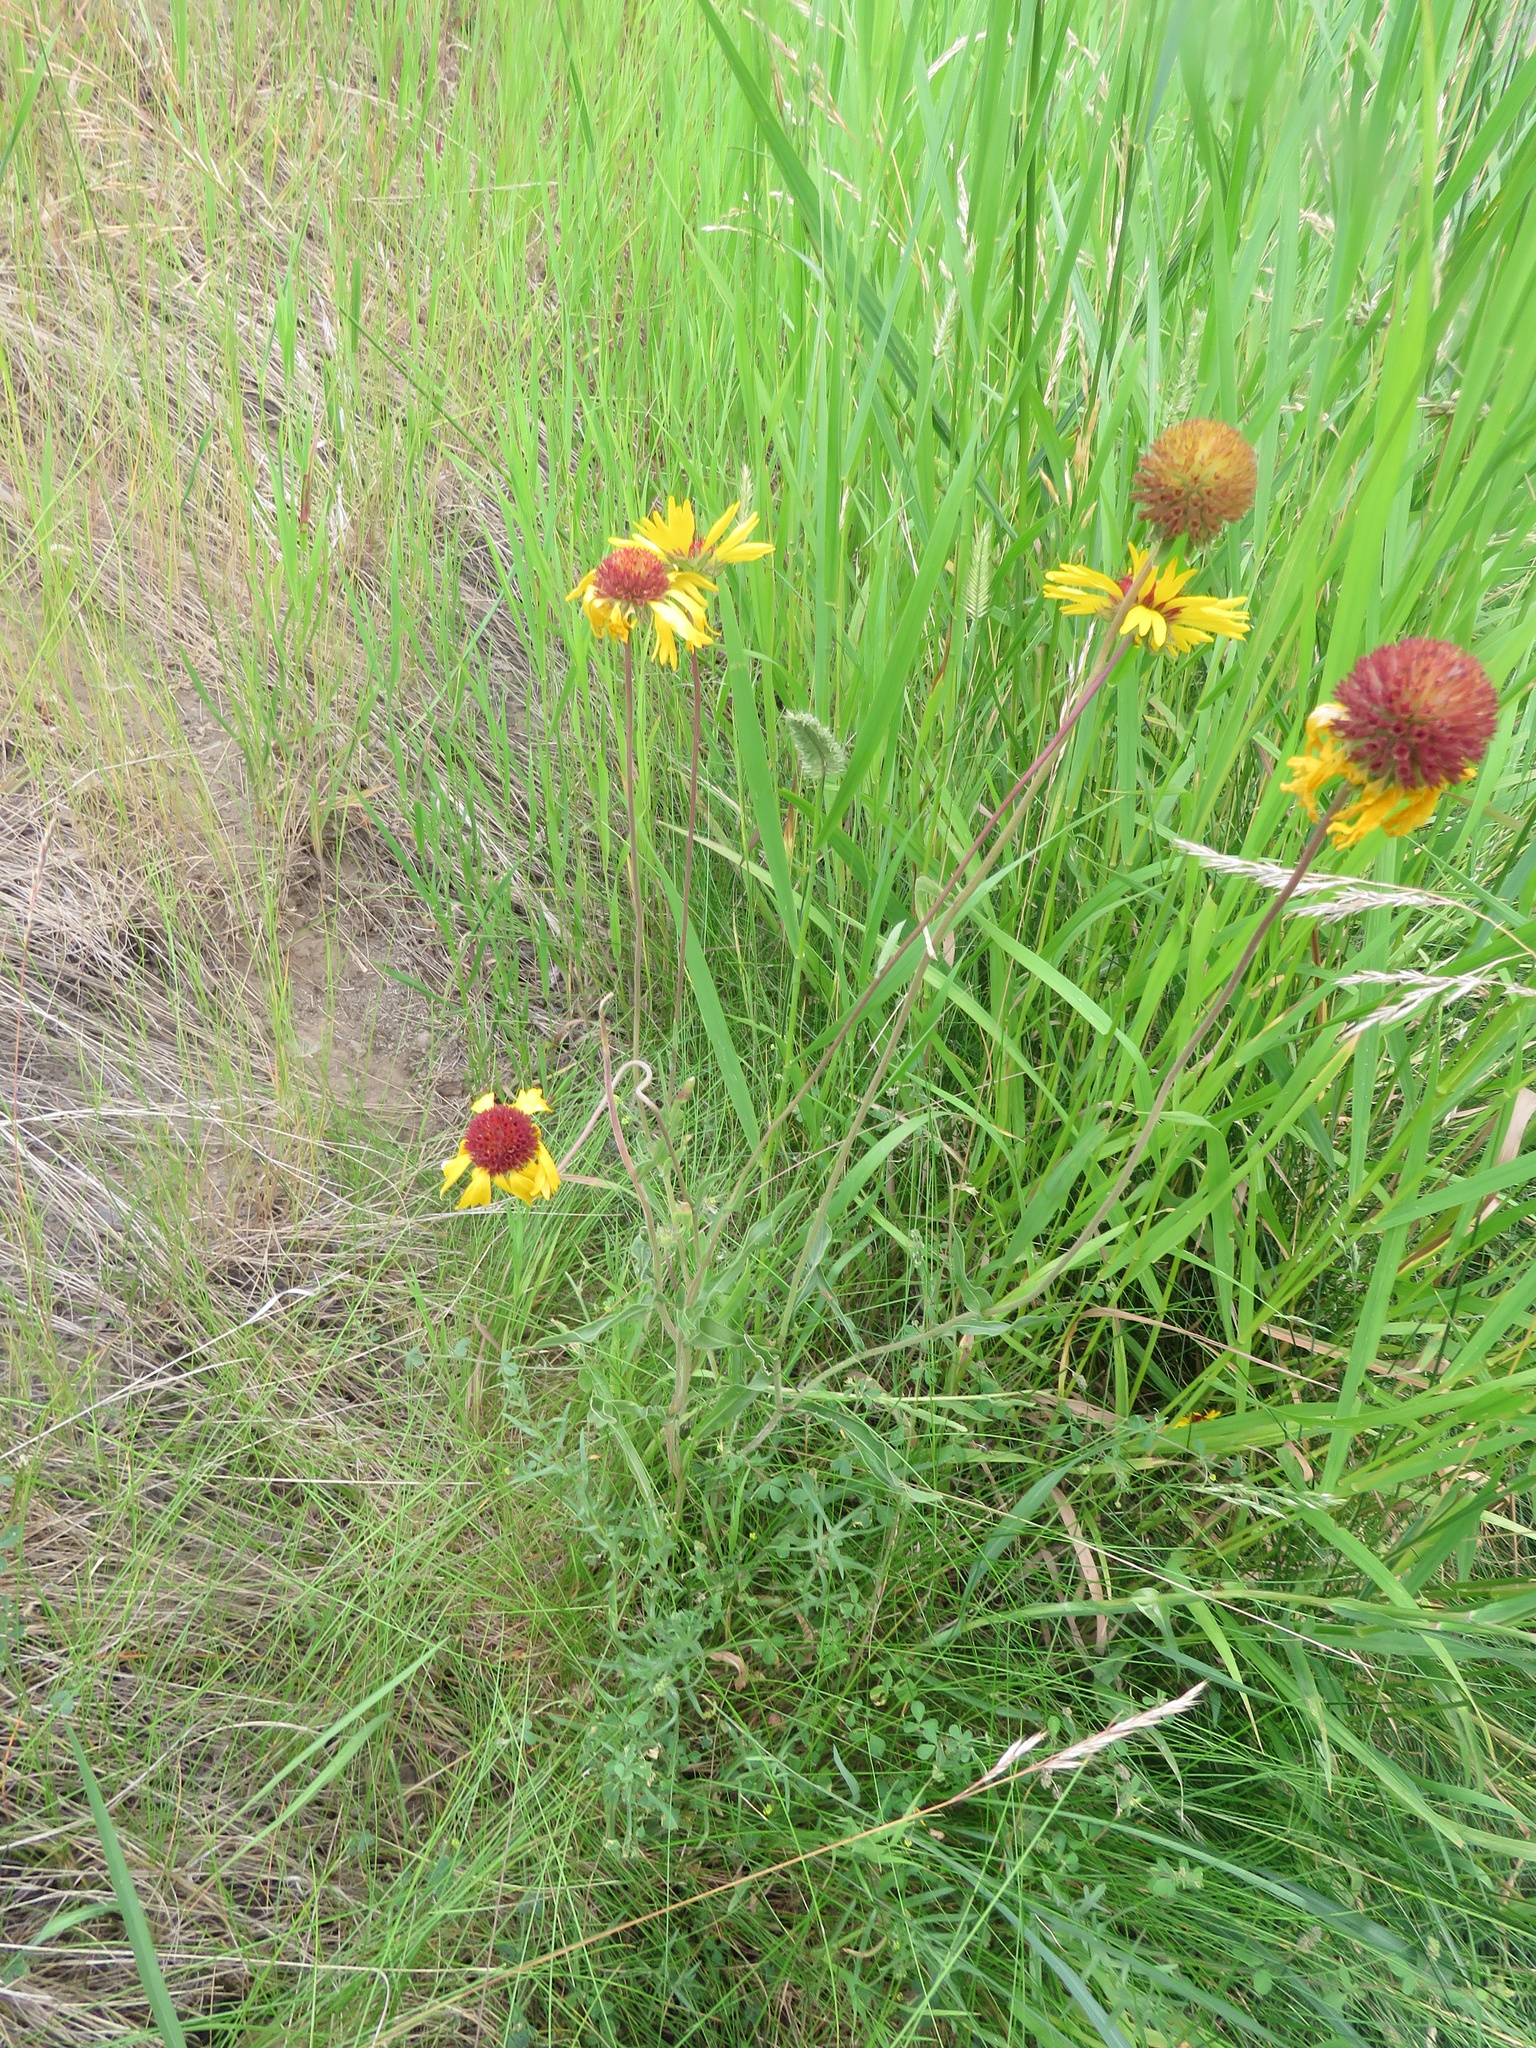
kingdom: Plantae
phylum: Tracheophyta
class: Magnoliopsida
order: Asterales
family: Asteraceae
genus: Gaillardia
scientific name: Gaillardia aristata
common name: Blanket-flower
